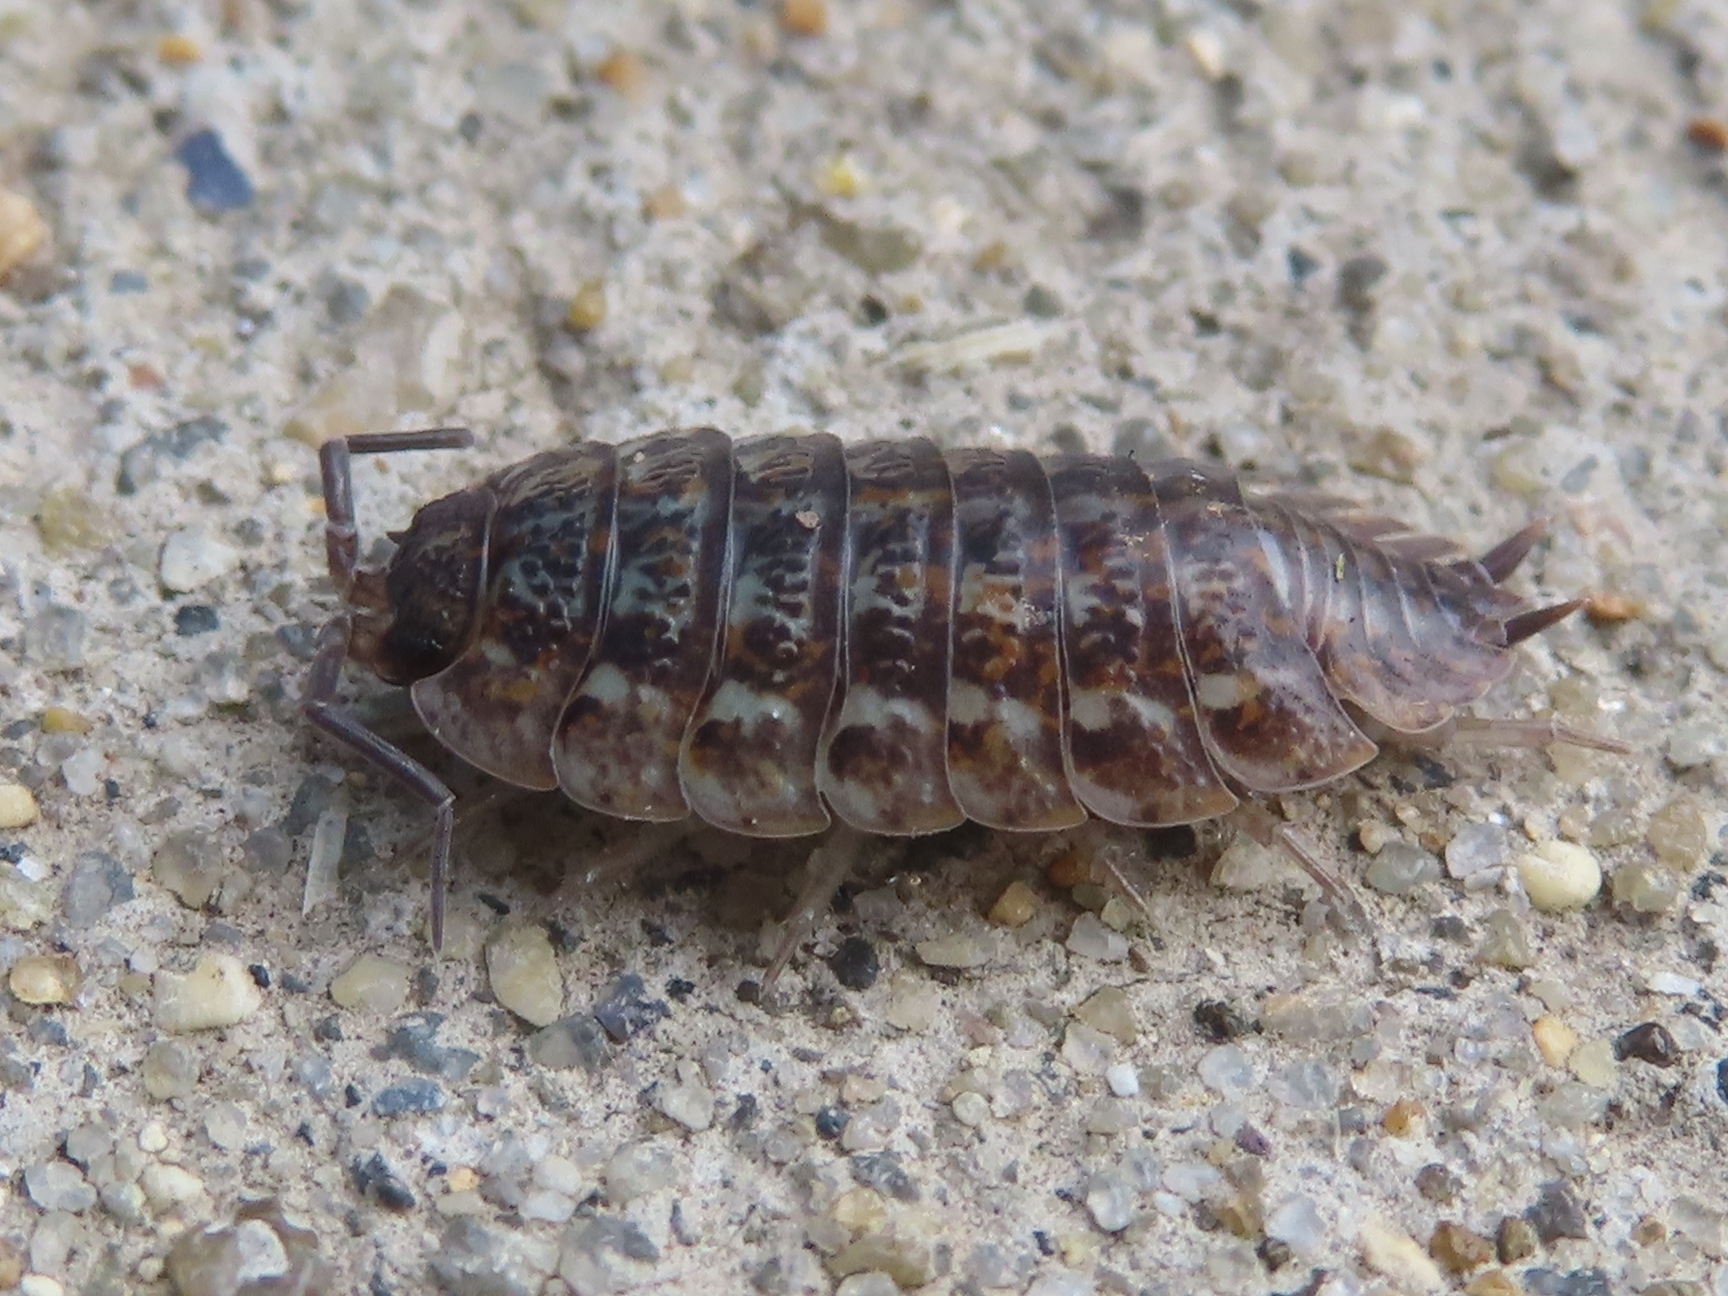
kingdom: Animalia
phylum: Arthropoda
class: Malacostraca
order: Isopoda
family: Trachelipodidae
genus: Trachelipus
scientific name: Trachelipus rathkii
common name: Isopod
